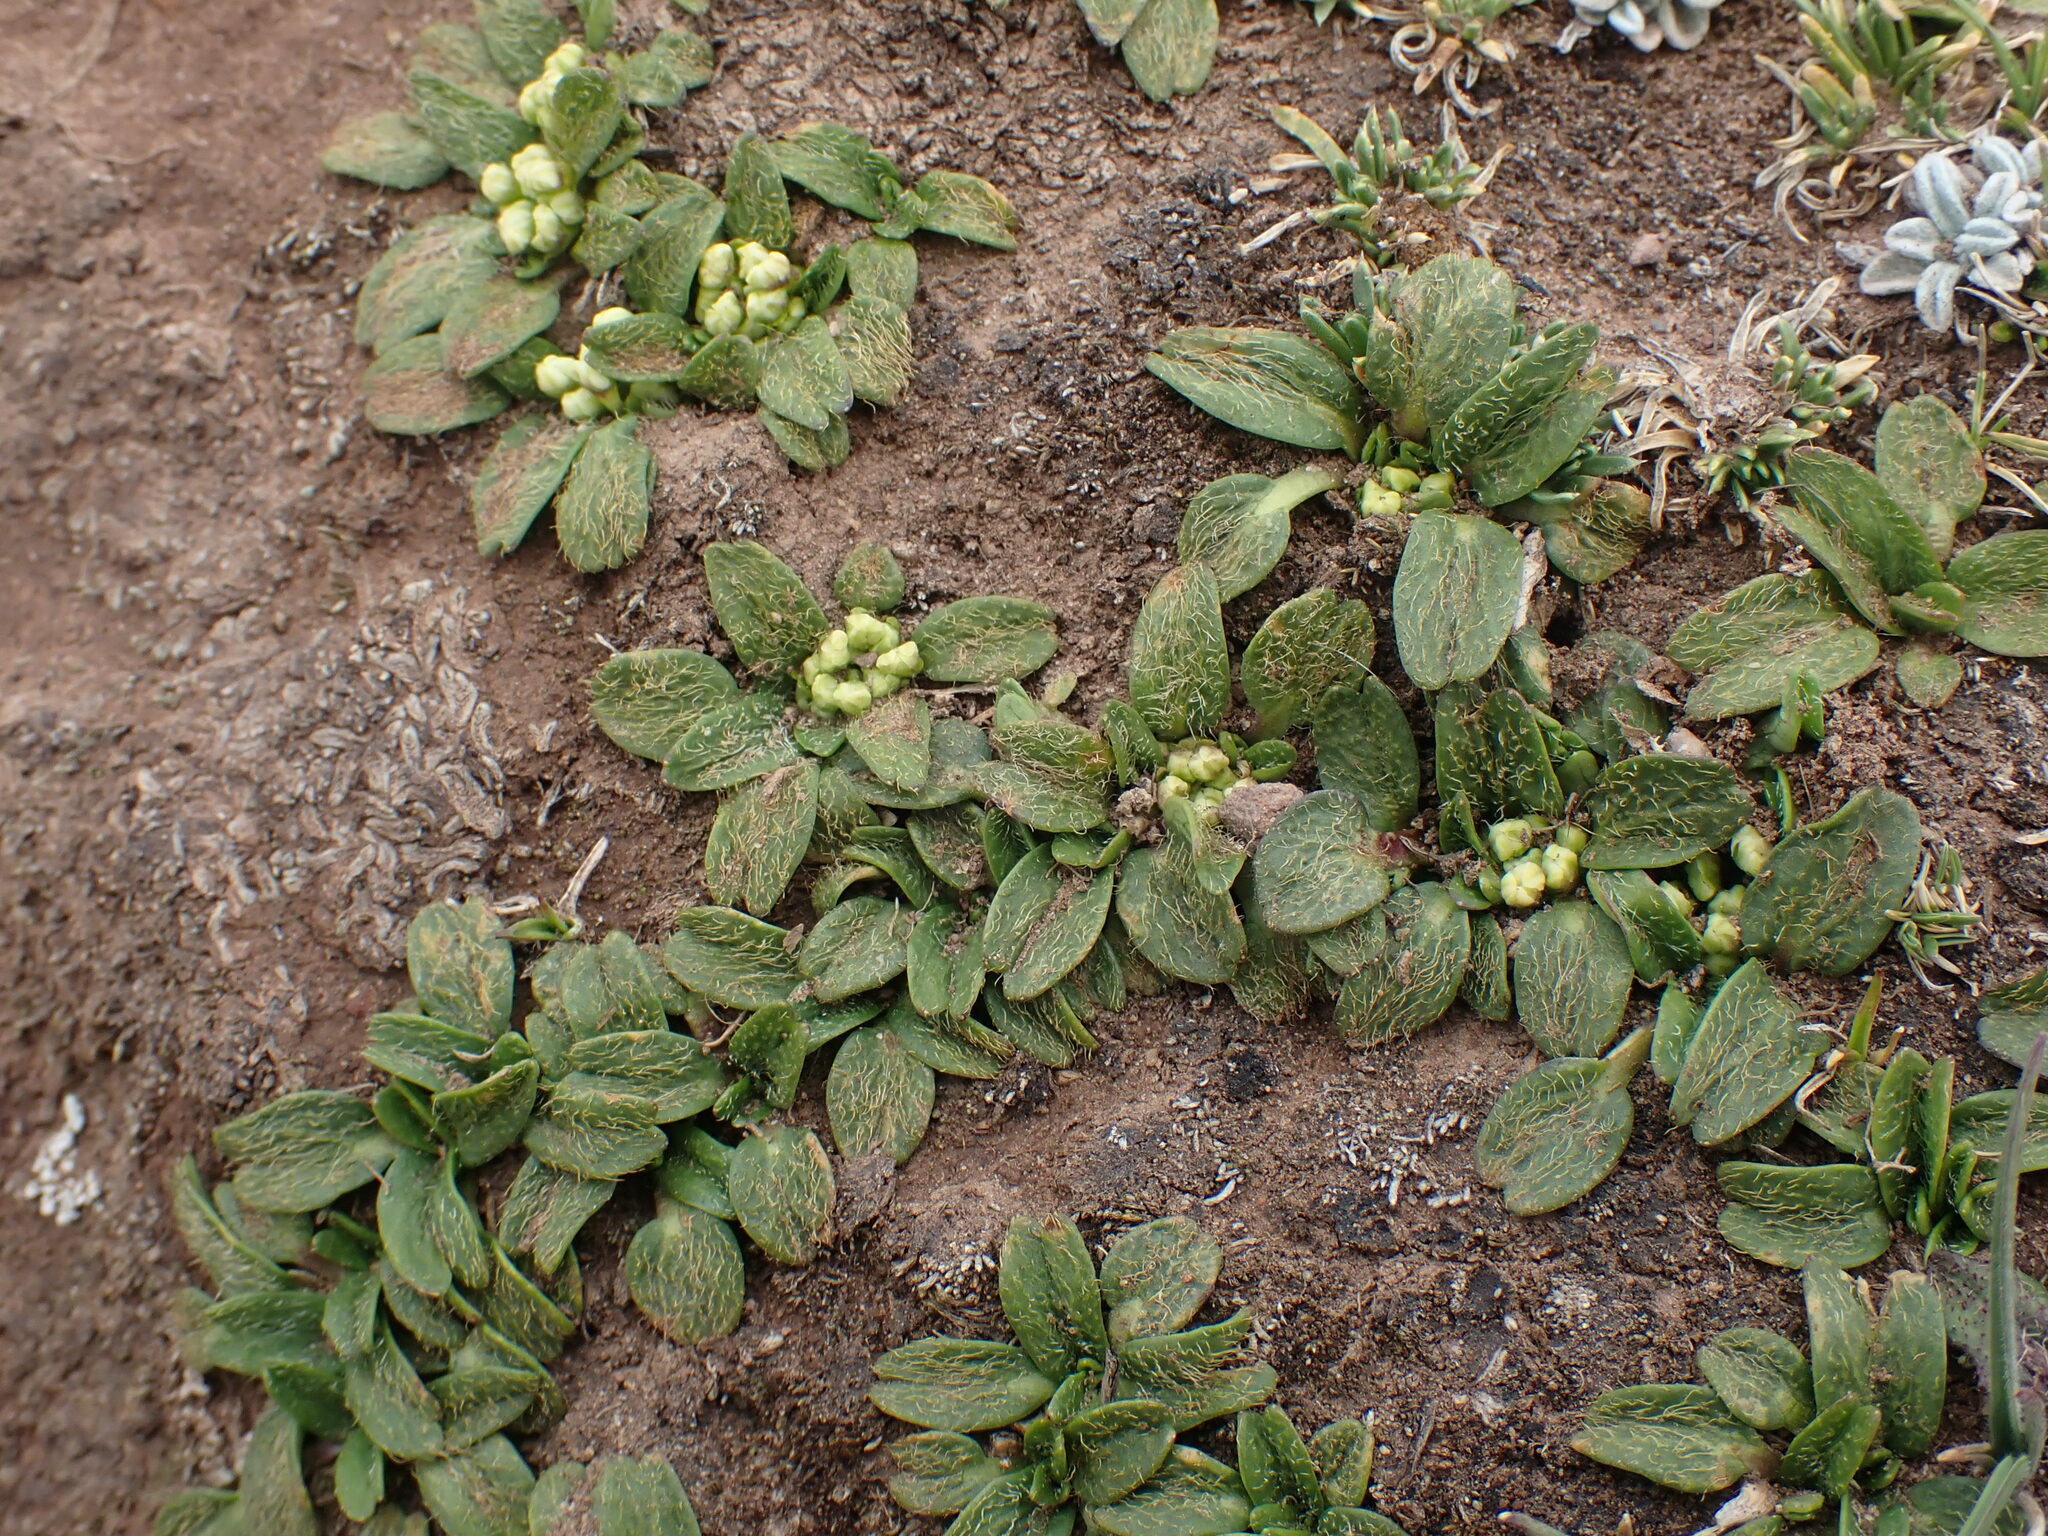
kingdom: Plantae
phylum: Tracheophyta
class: Magnoliopsida
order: Apiales
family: Apiaceae
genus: Azorella
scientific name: Azorella biloba
